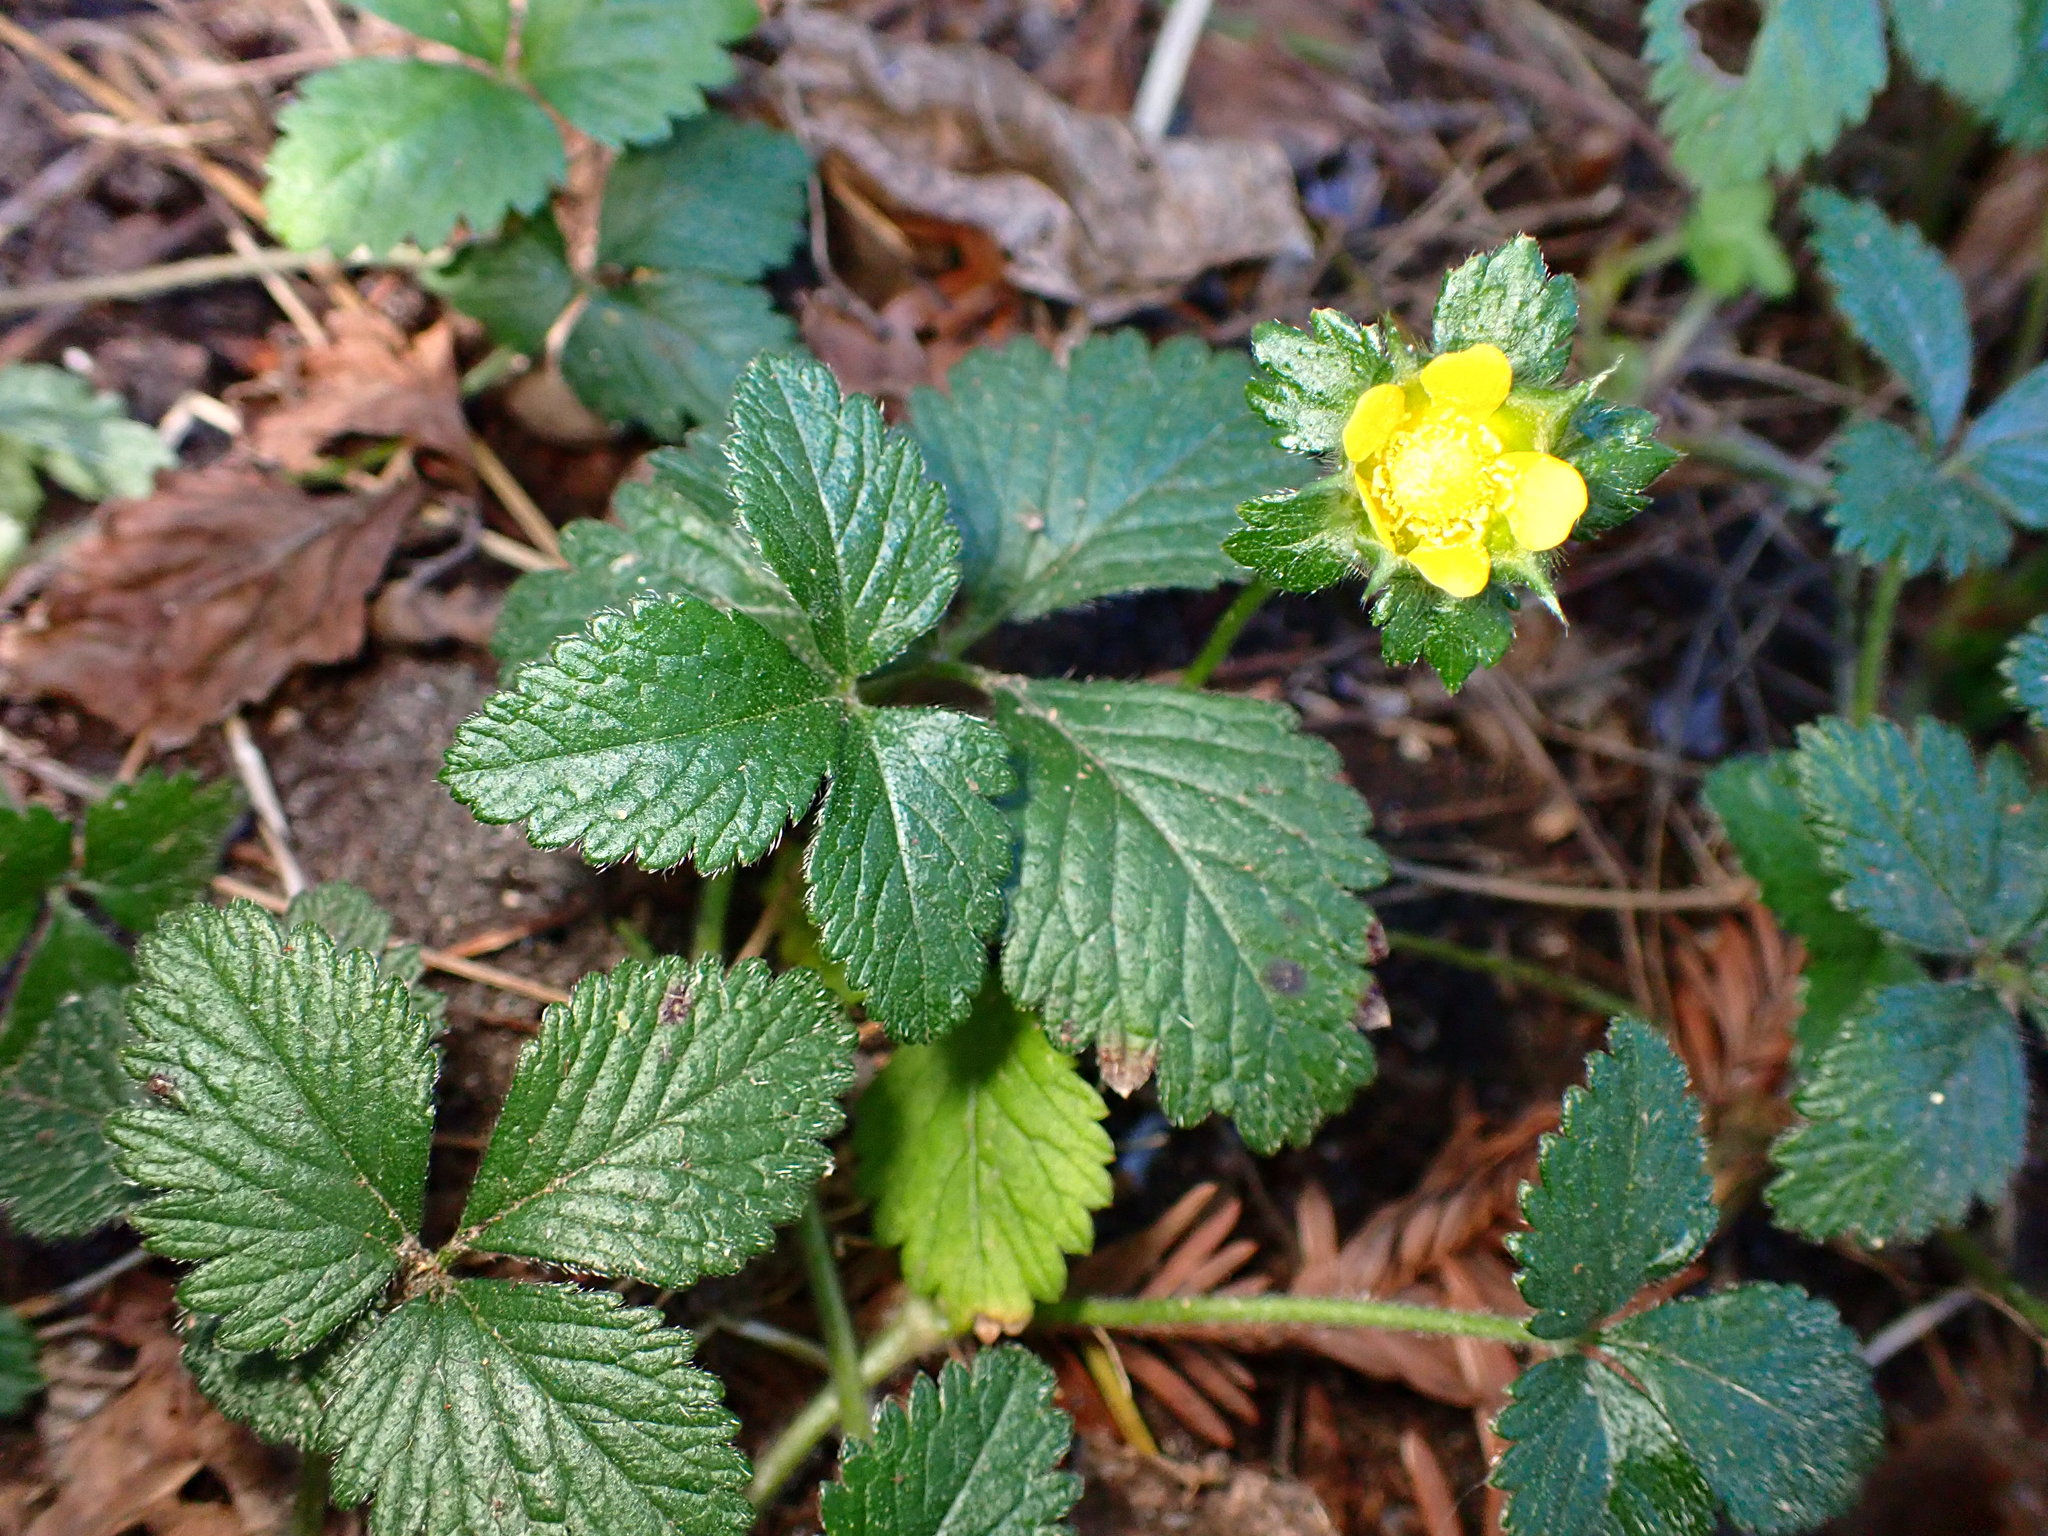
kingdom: Plantae
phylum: Tracheophyta
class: Magnoliopsida
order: Rosales
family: Rosaceae
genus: Potentilla
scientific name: Potentilla indica
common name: Yellow-flowered strawberry
